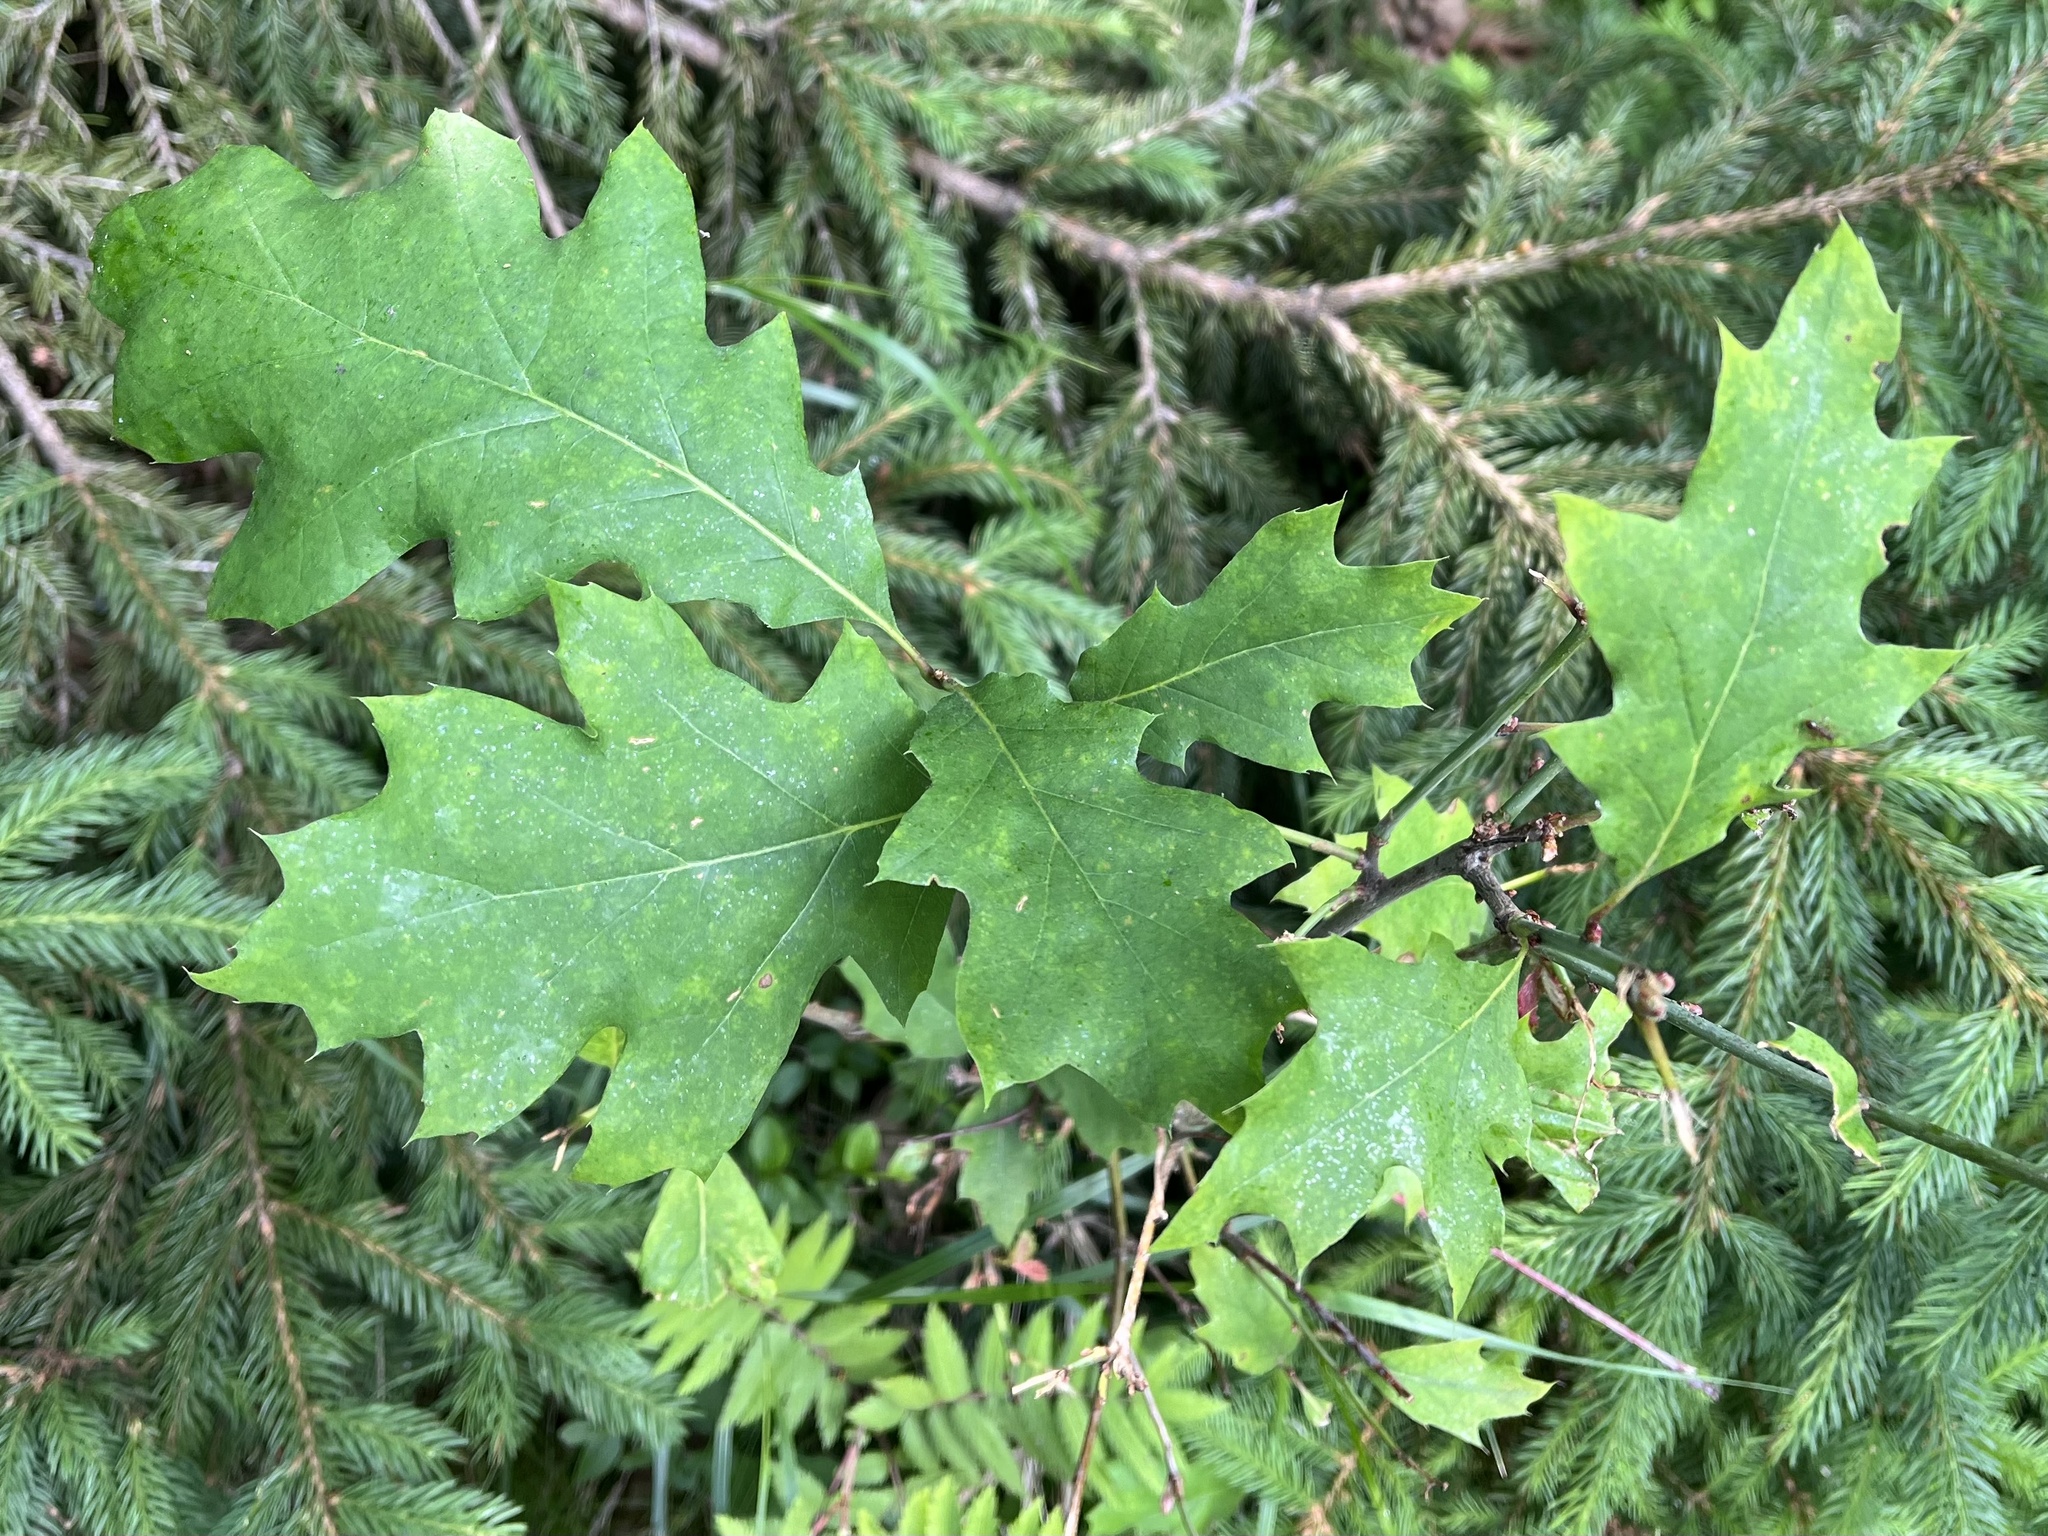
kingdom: Plantae
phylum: Tracheophyta
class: Magnoliopsida
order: Fagales
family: Fagaceae
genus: Quercus
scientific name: Quercus rubra
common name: Red oak
